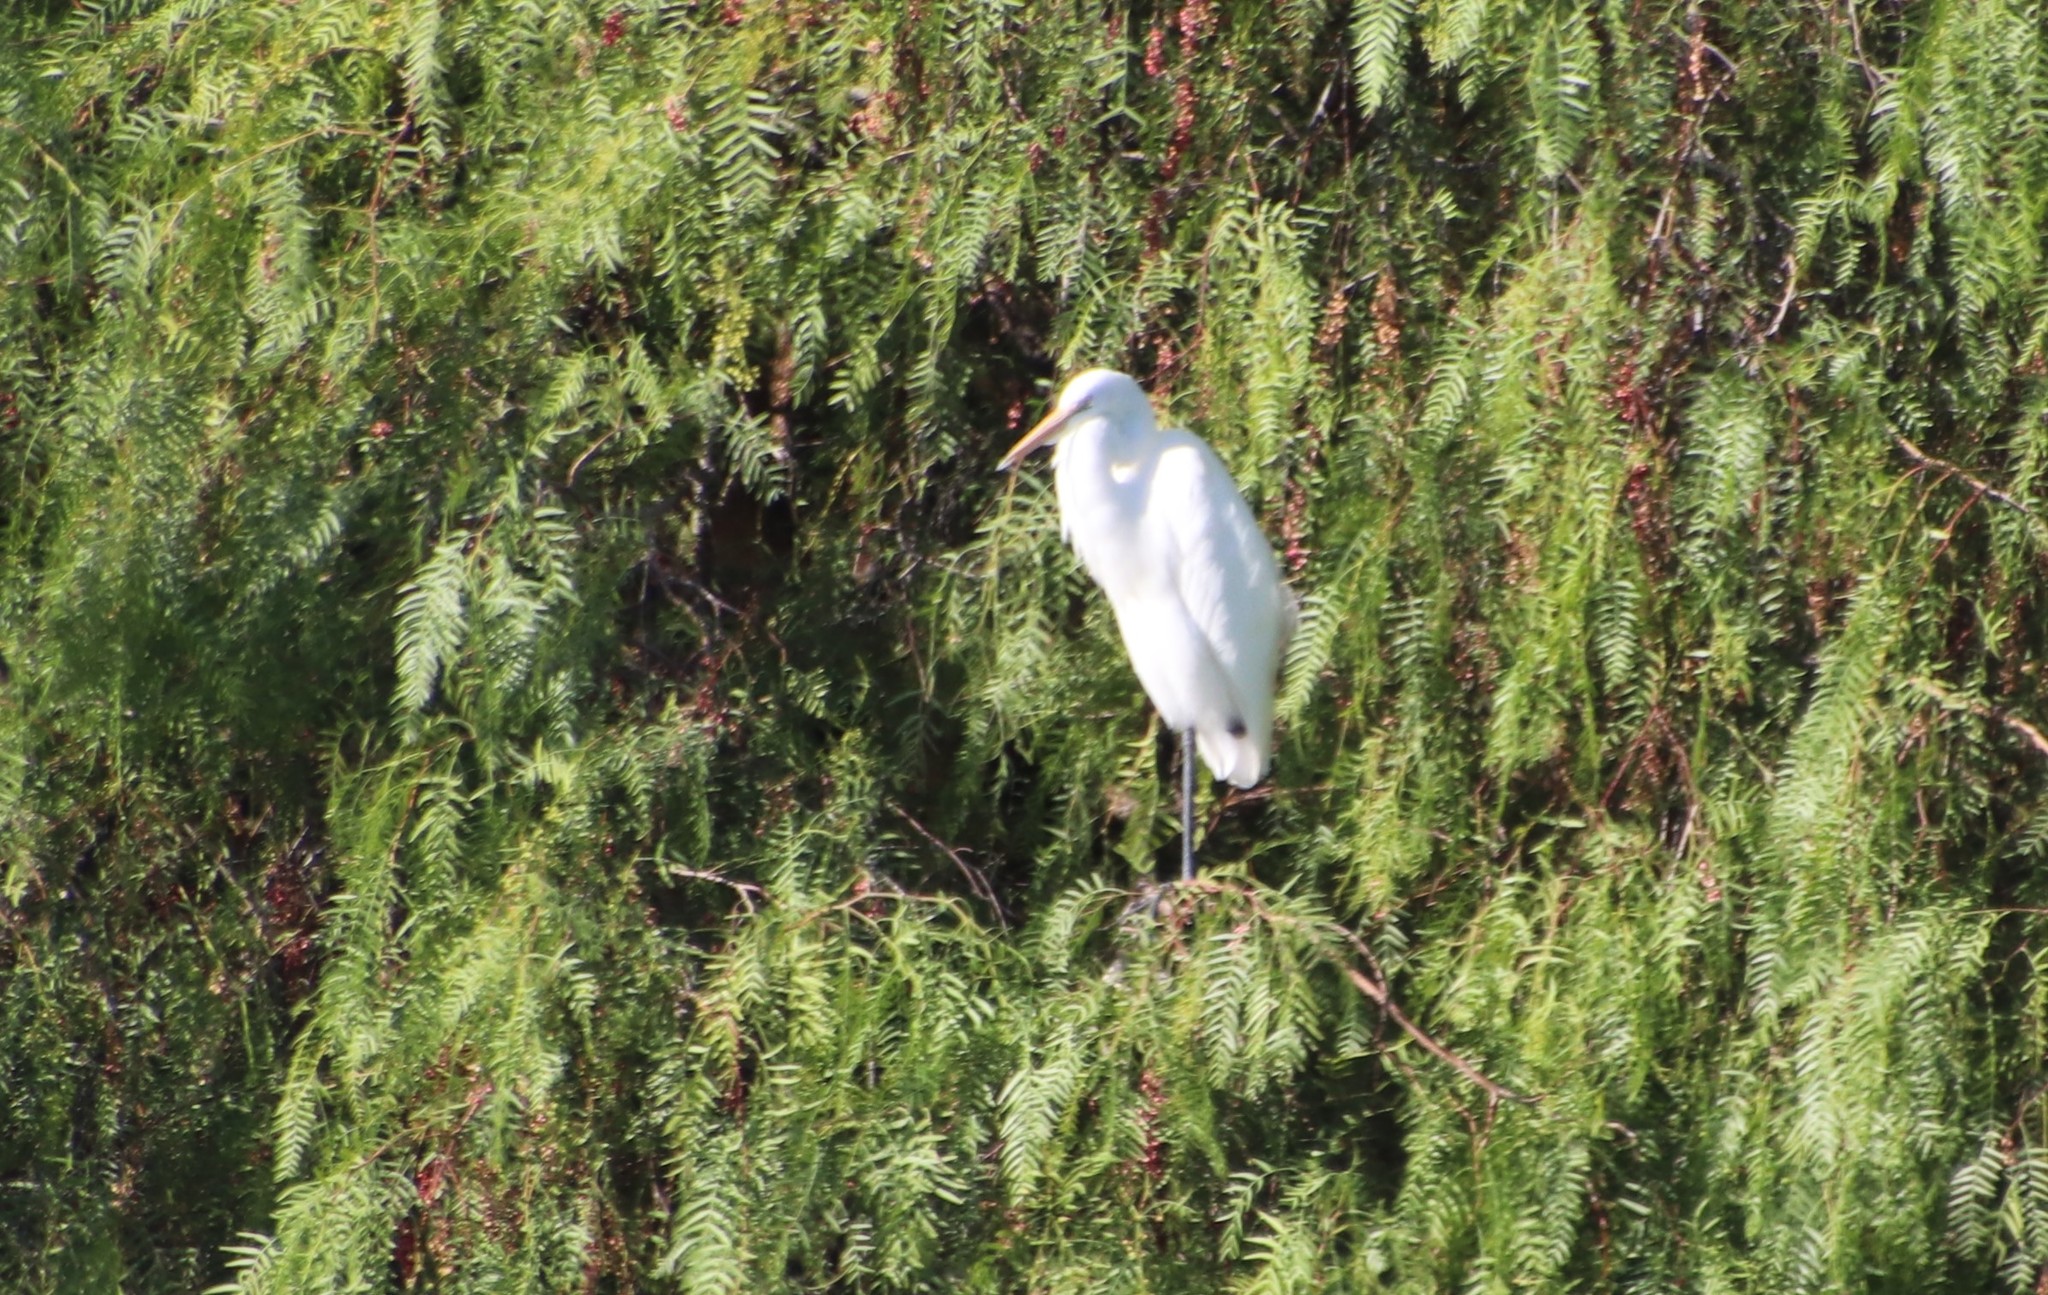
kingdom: Animalia
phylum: Chordata
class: Aves
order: Pelecaniformes
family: Ardeidae
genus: Ardea
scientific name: Ardea alba
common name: Great egret
